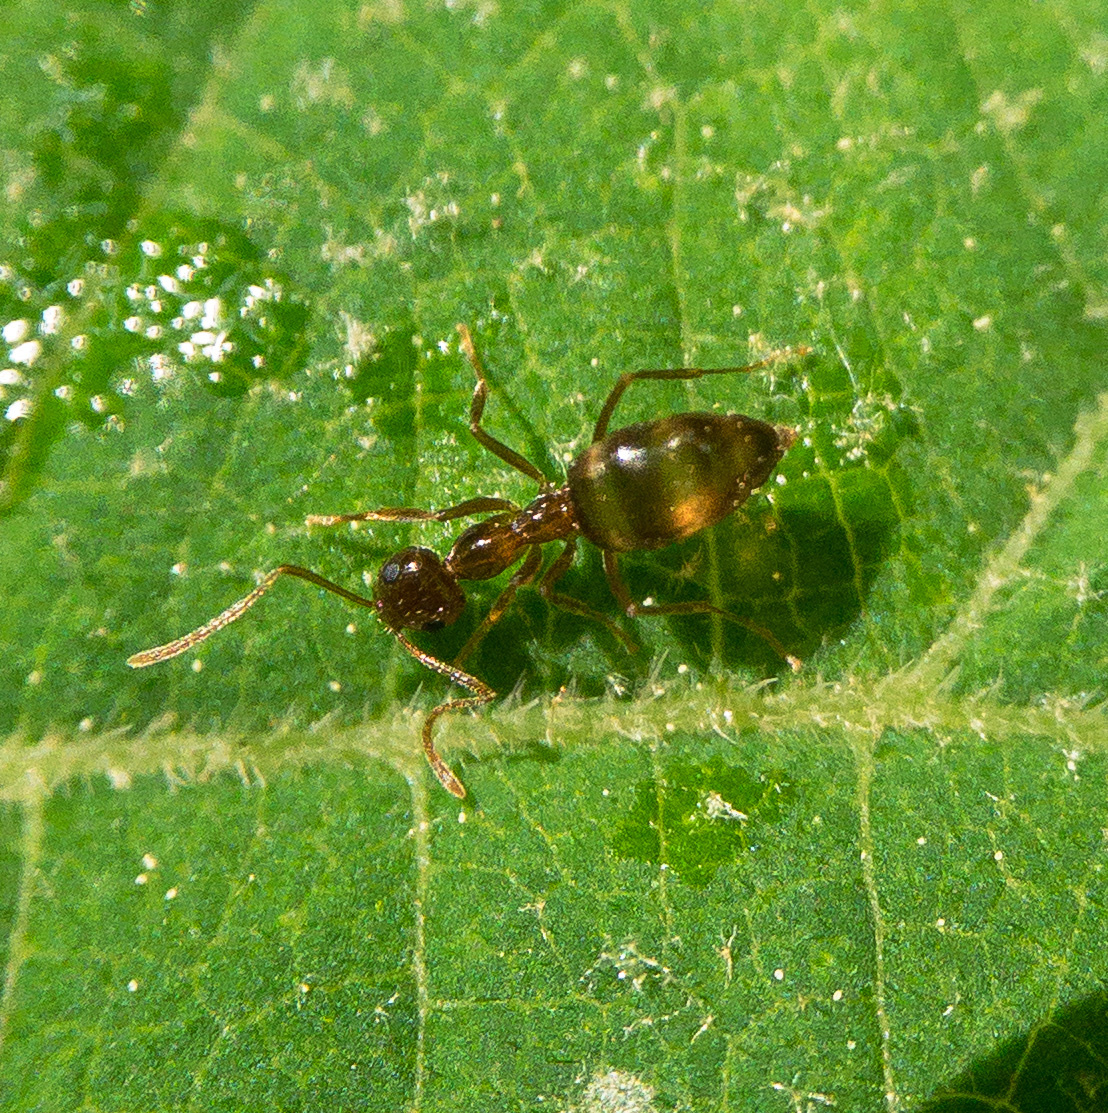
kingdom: Animalia
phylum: Arthropoda
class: Insecta
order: Hymenoptera
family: Formicidae
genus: Prenolepis
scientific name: Prenolepis imparis
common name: Small honey ant
